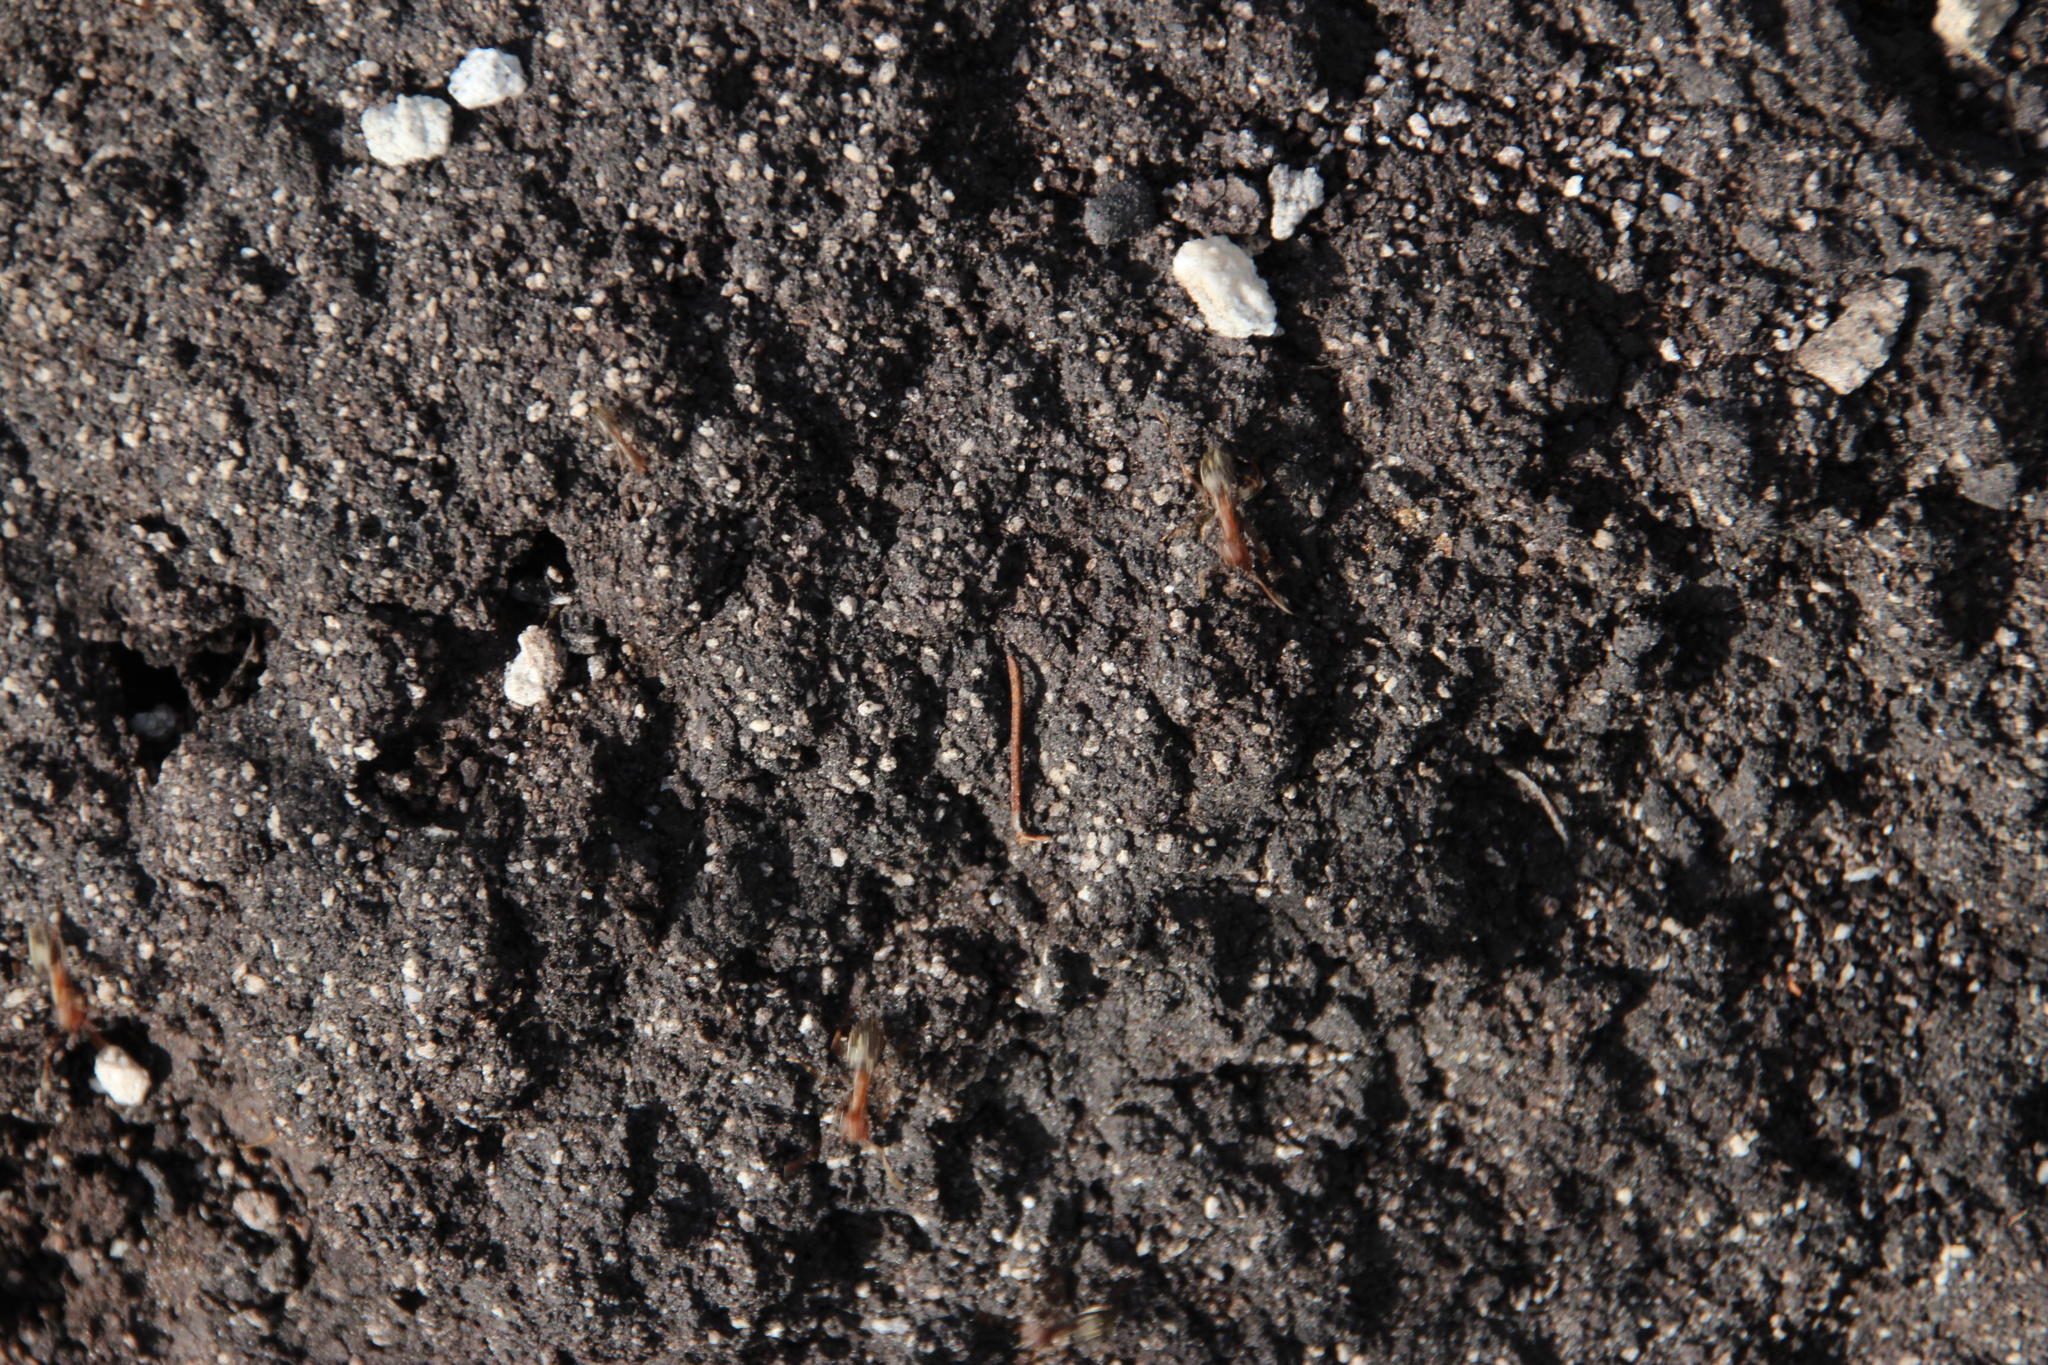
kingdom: Animalia
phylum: Arthropoda
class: Insecta
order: Hymenoptera
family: Formicidae
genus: Anoplolepis
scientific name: Anoplolepis custodiens
